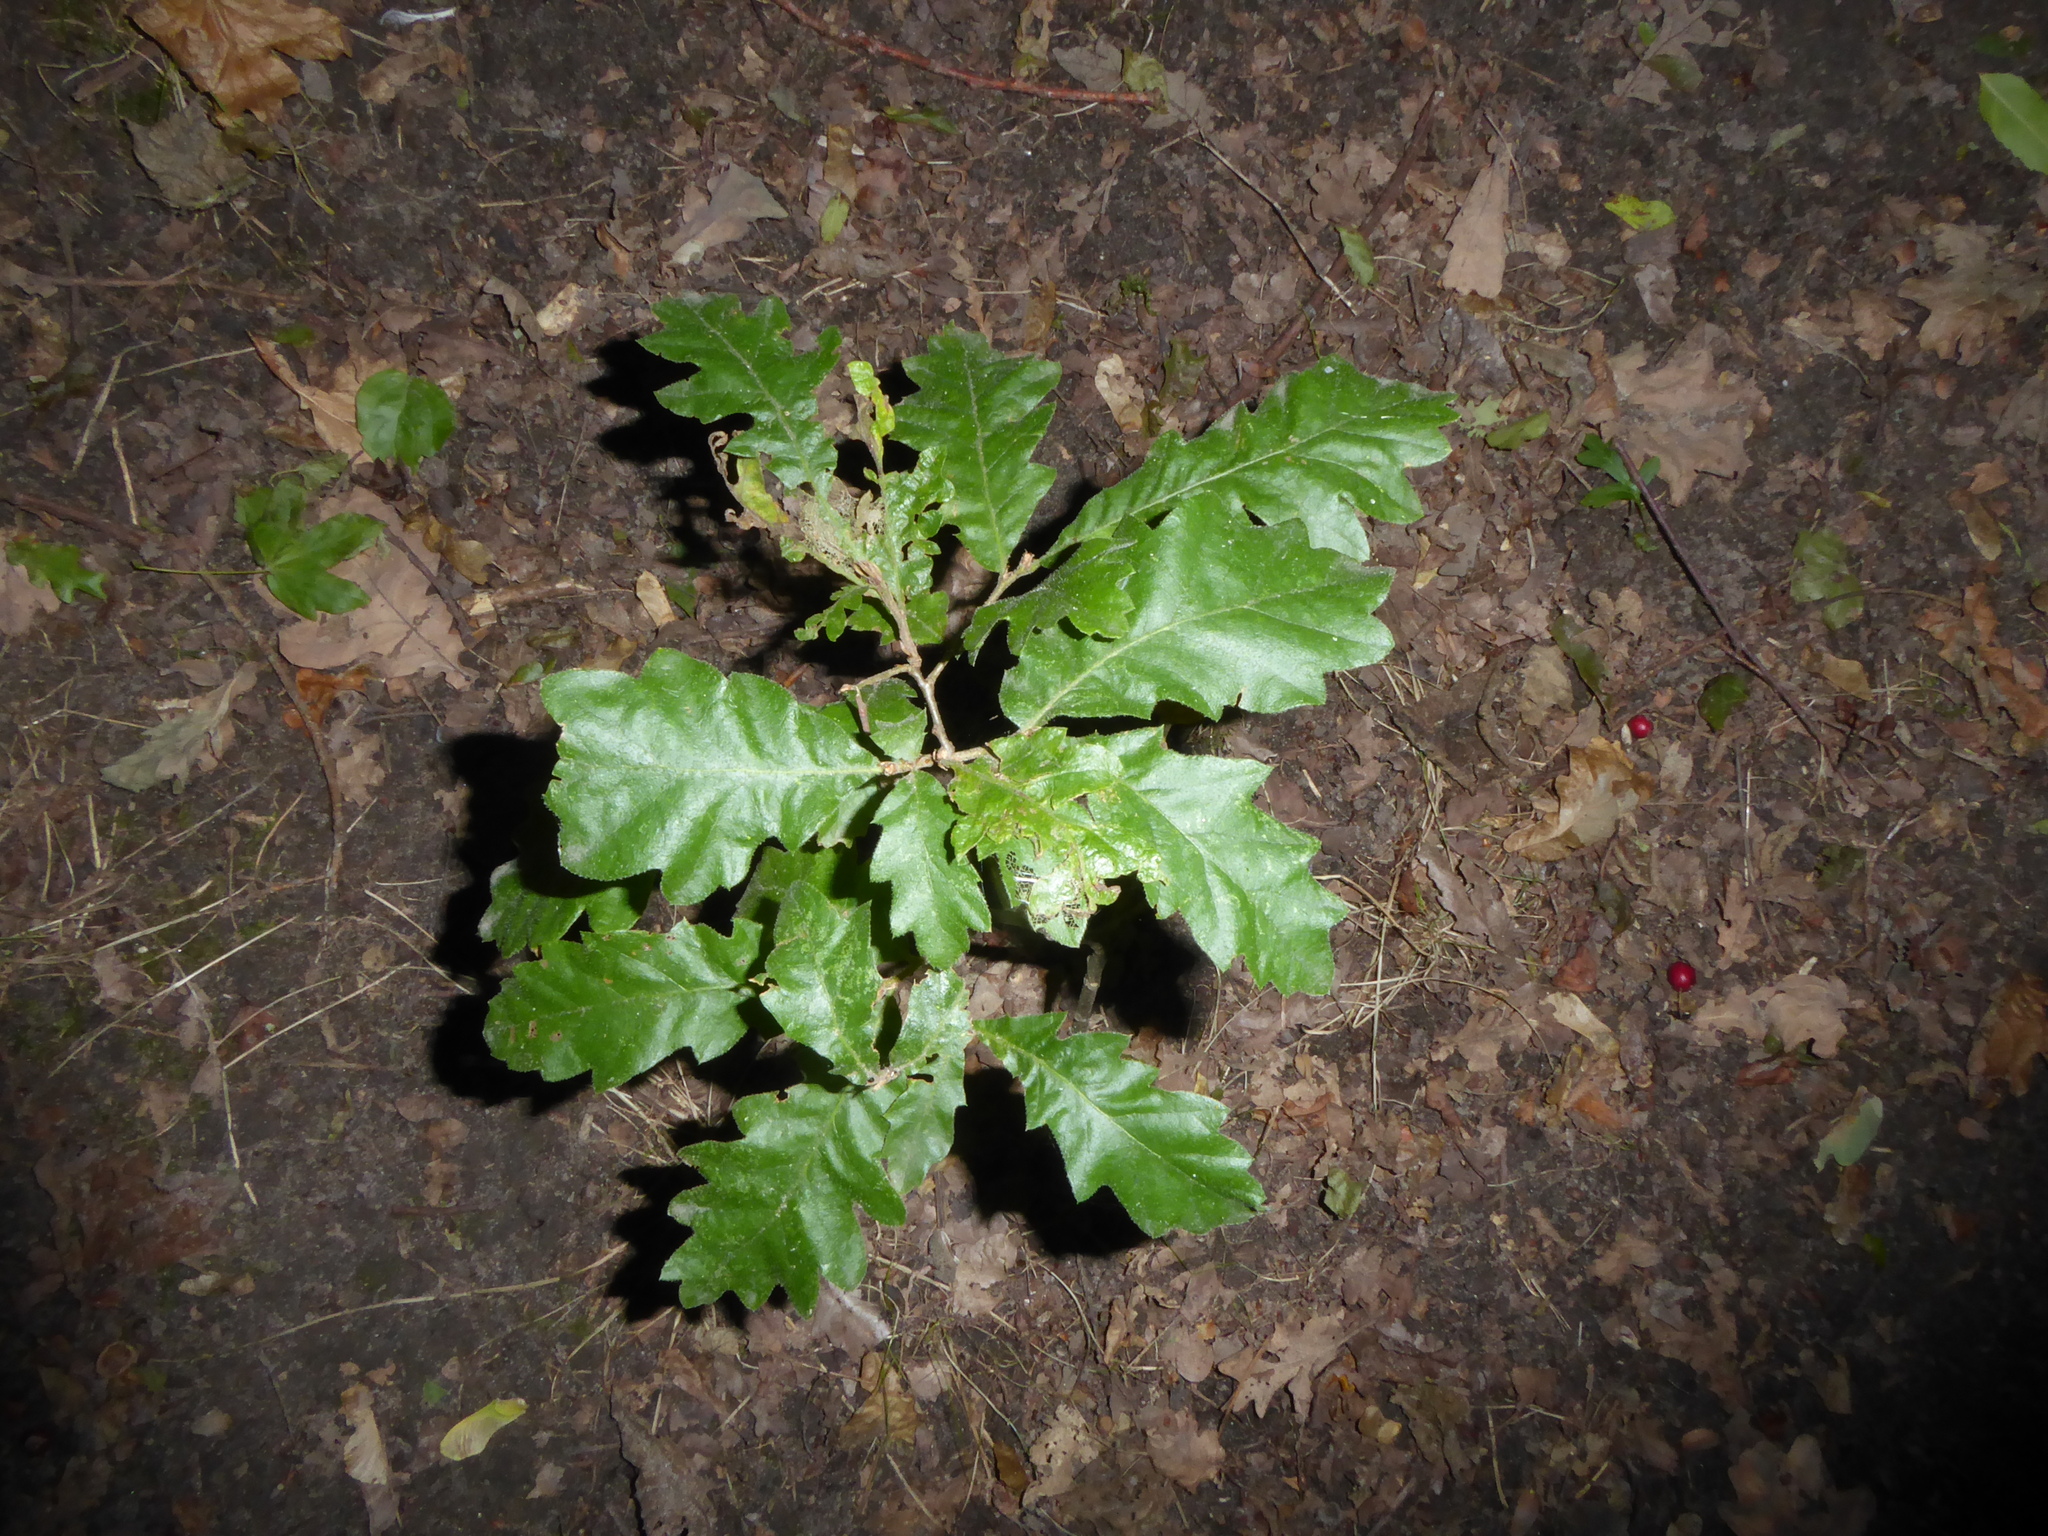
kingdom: Plantae
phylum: Tracheophyta
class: Magnoliopsida
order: Fagales
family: Fagaceae
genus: Quercus
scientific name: Quercus cerris
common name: Turkey oak
